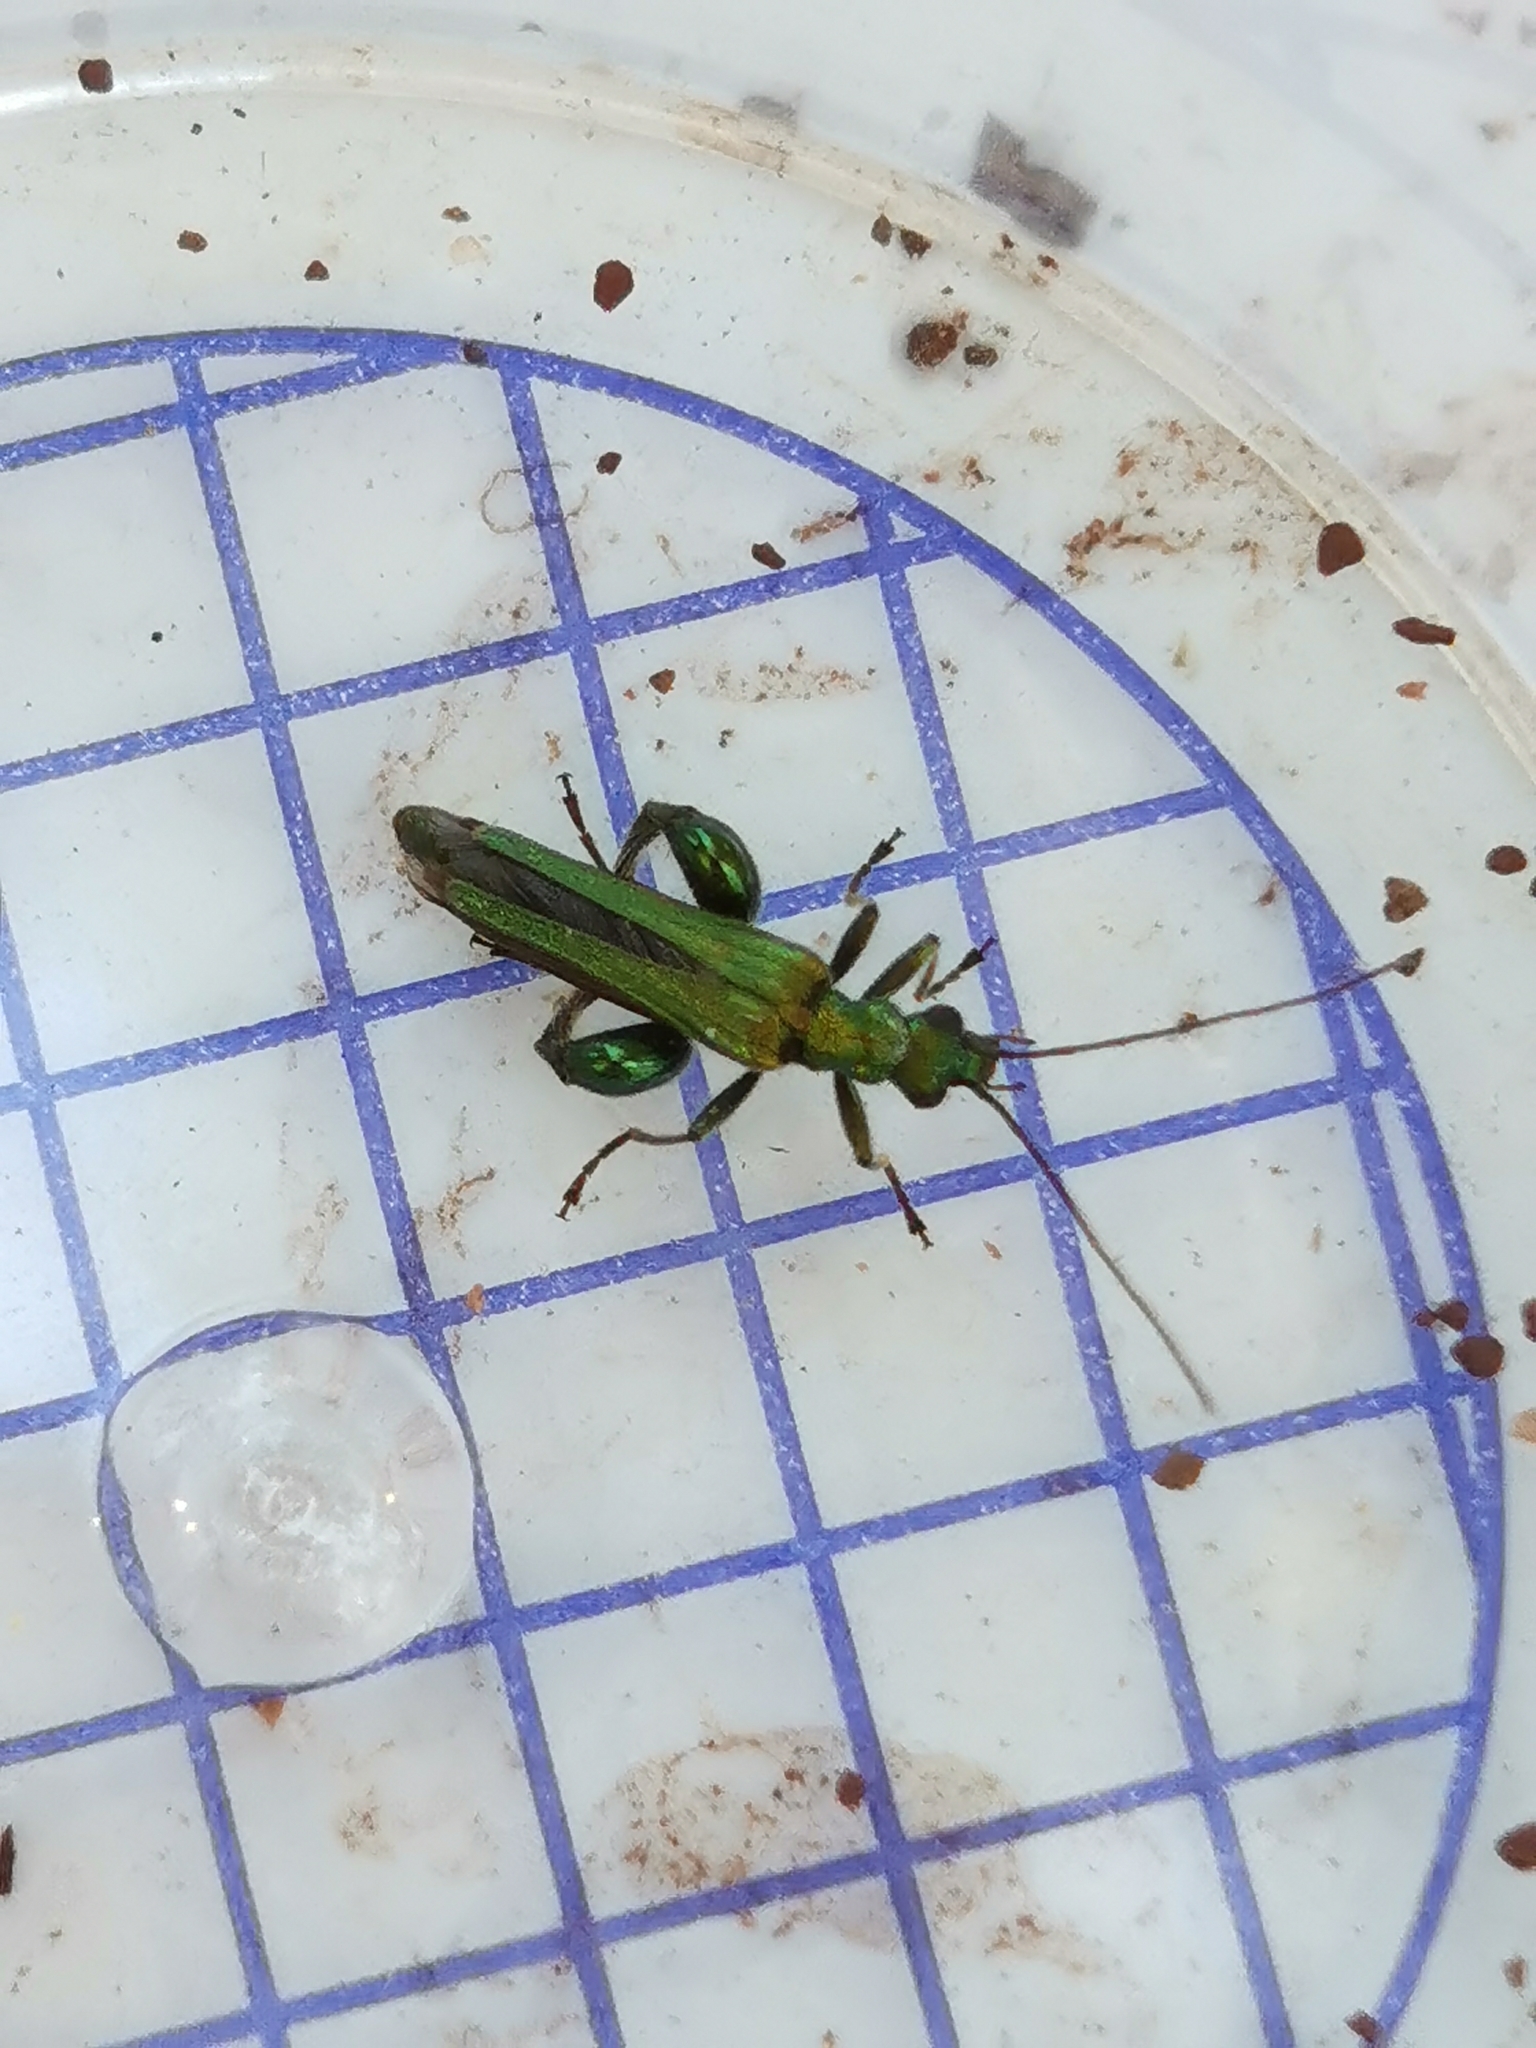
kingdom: Animalia
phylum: Arthropoda
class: Insecta
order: Coleoptera
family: Oedemeridae
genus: Oedemera
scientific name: Oedemera nobilis
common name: Swollen-thighed beetle
